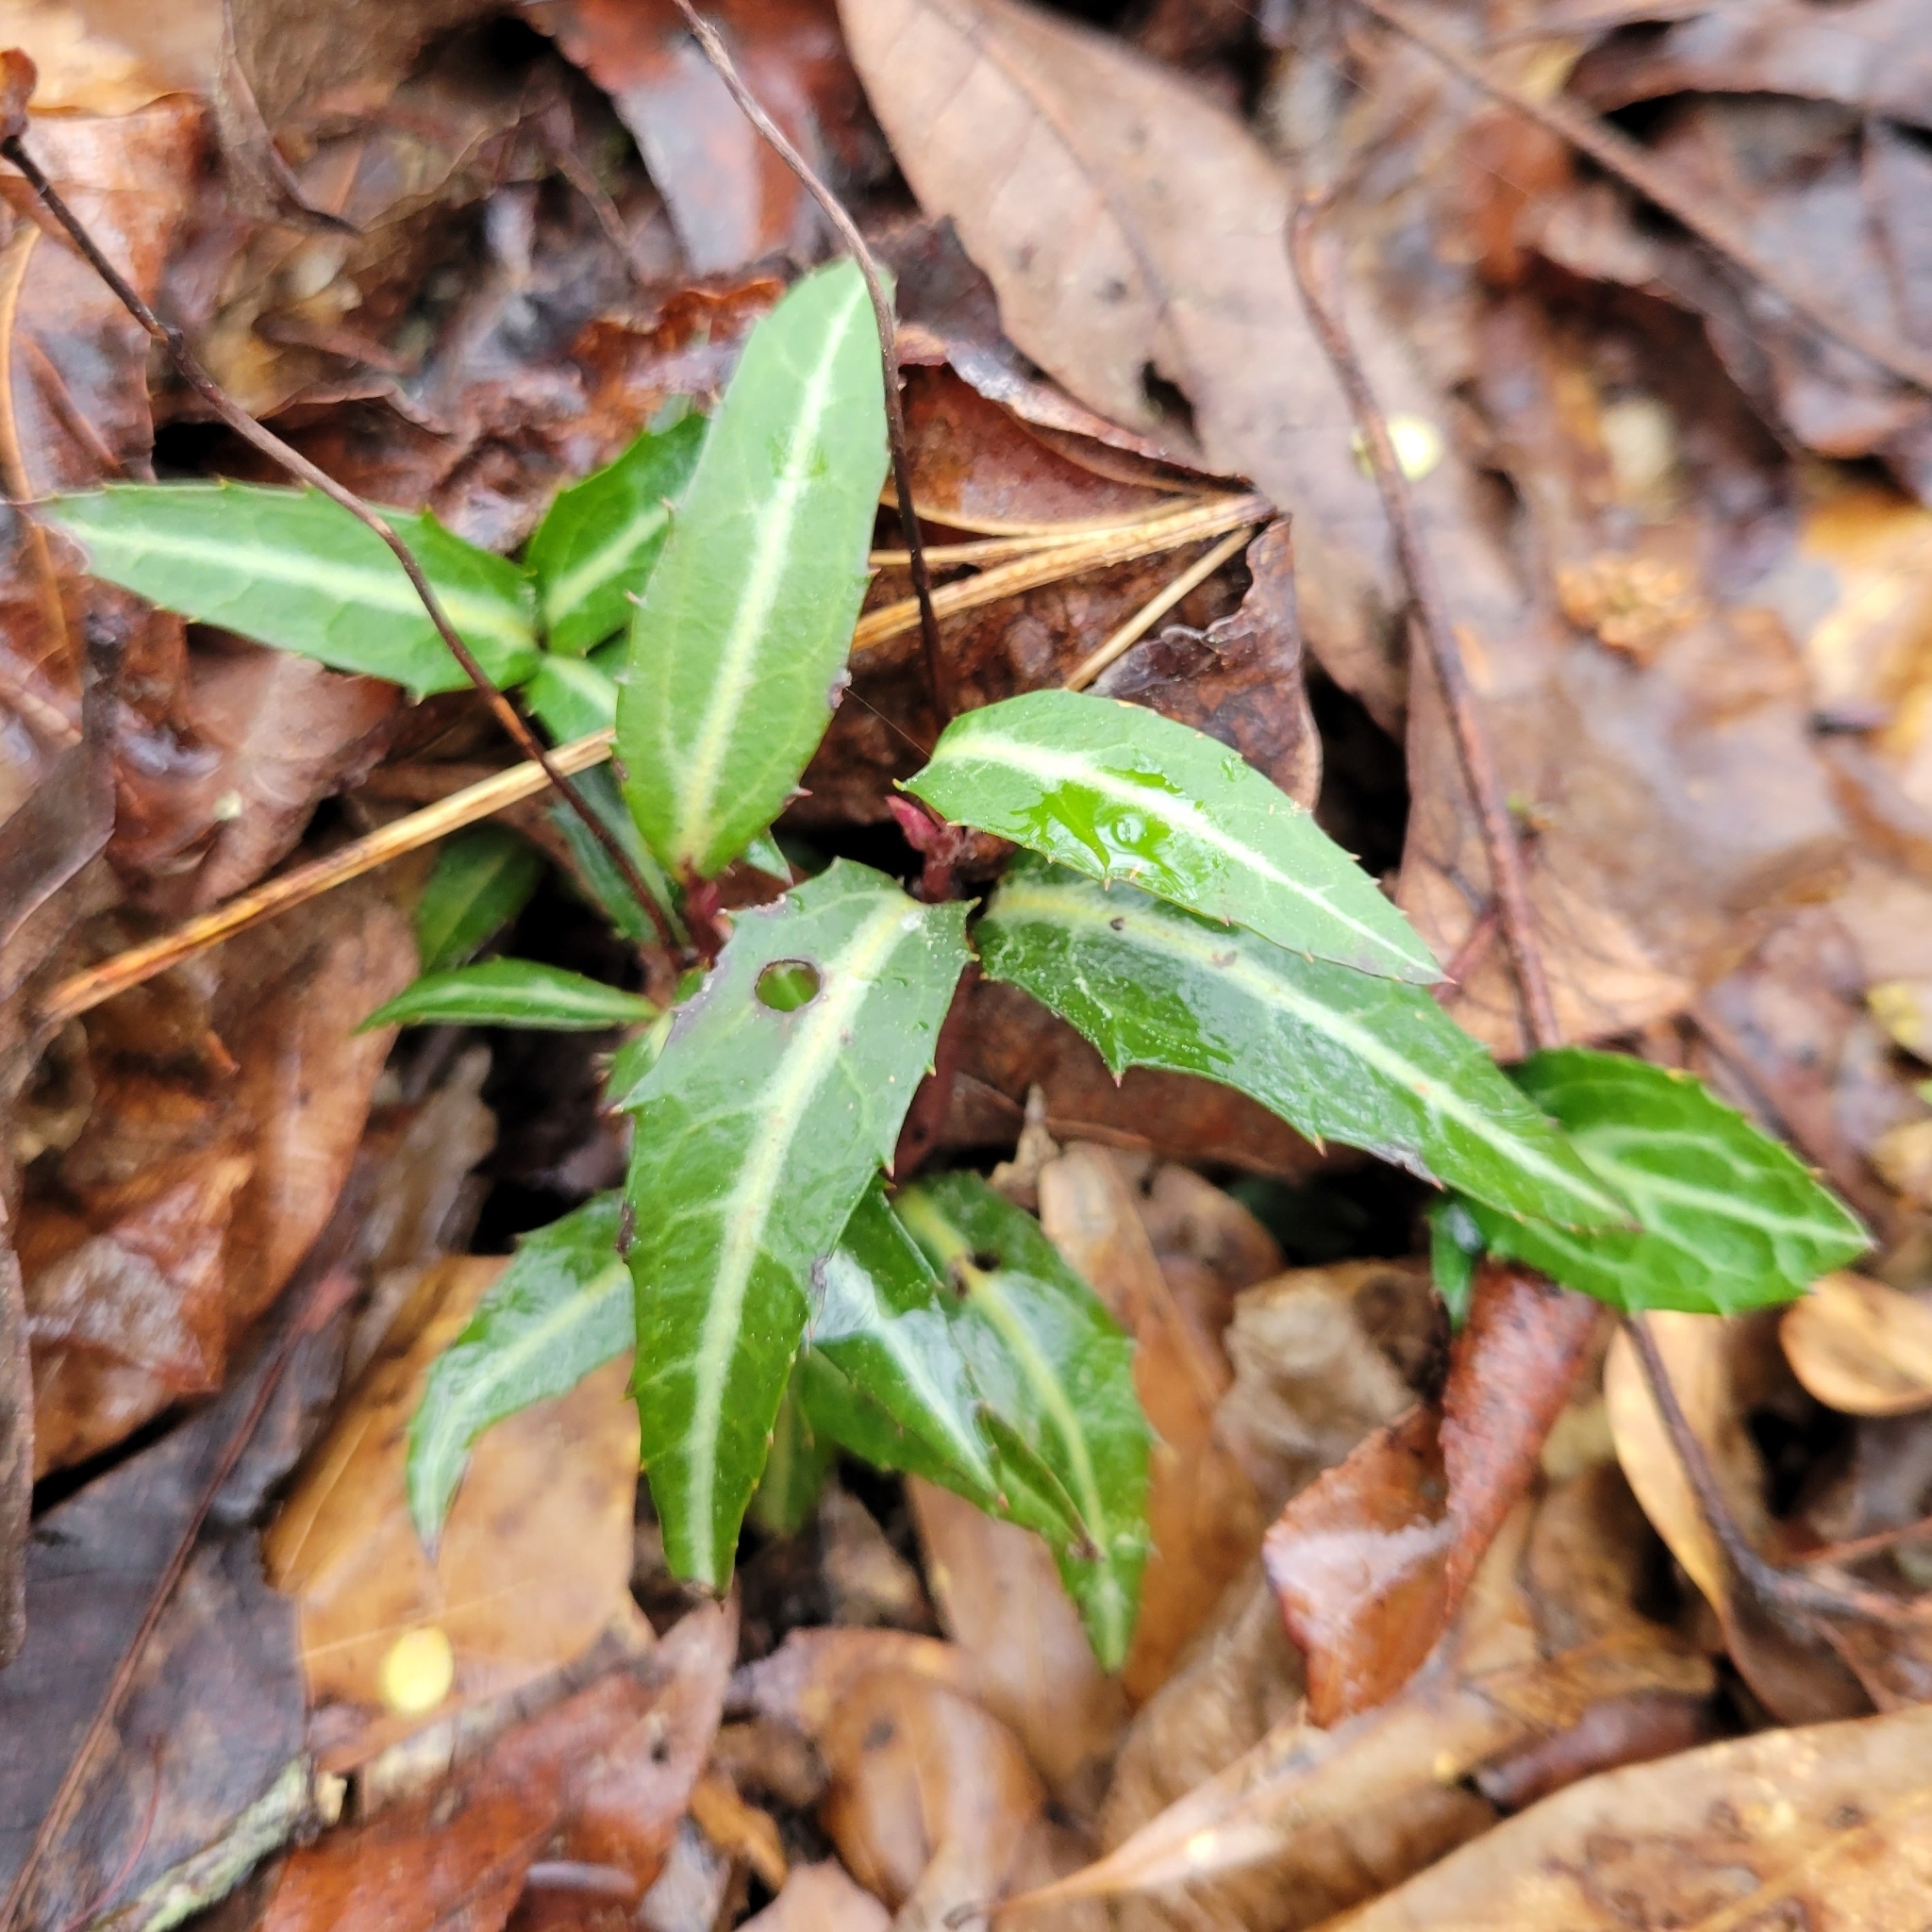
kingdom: Plantae
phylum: Tracheophyta
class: Magnoliopsida
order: Ericales
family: Ericaceae
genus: Chimaphila
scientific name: Chimaphila maculata
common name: Spotted pipsissewa
